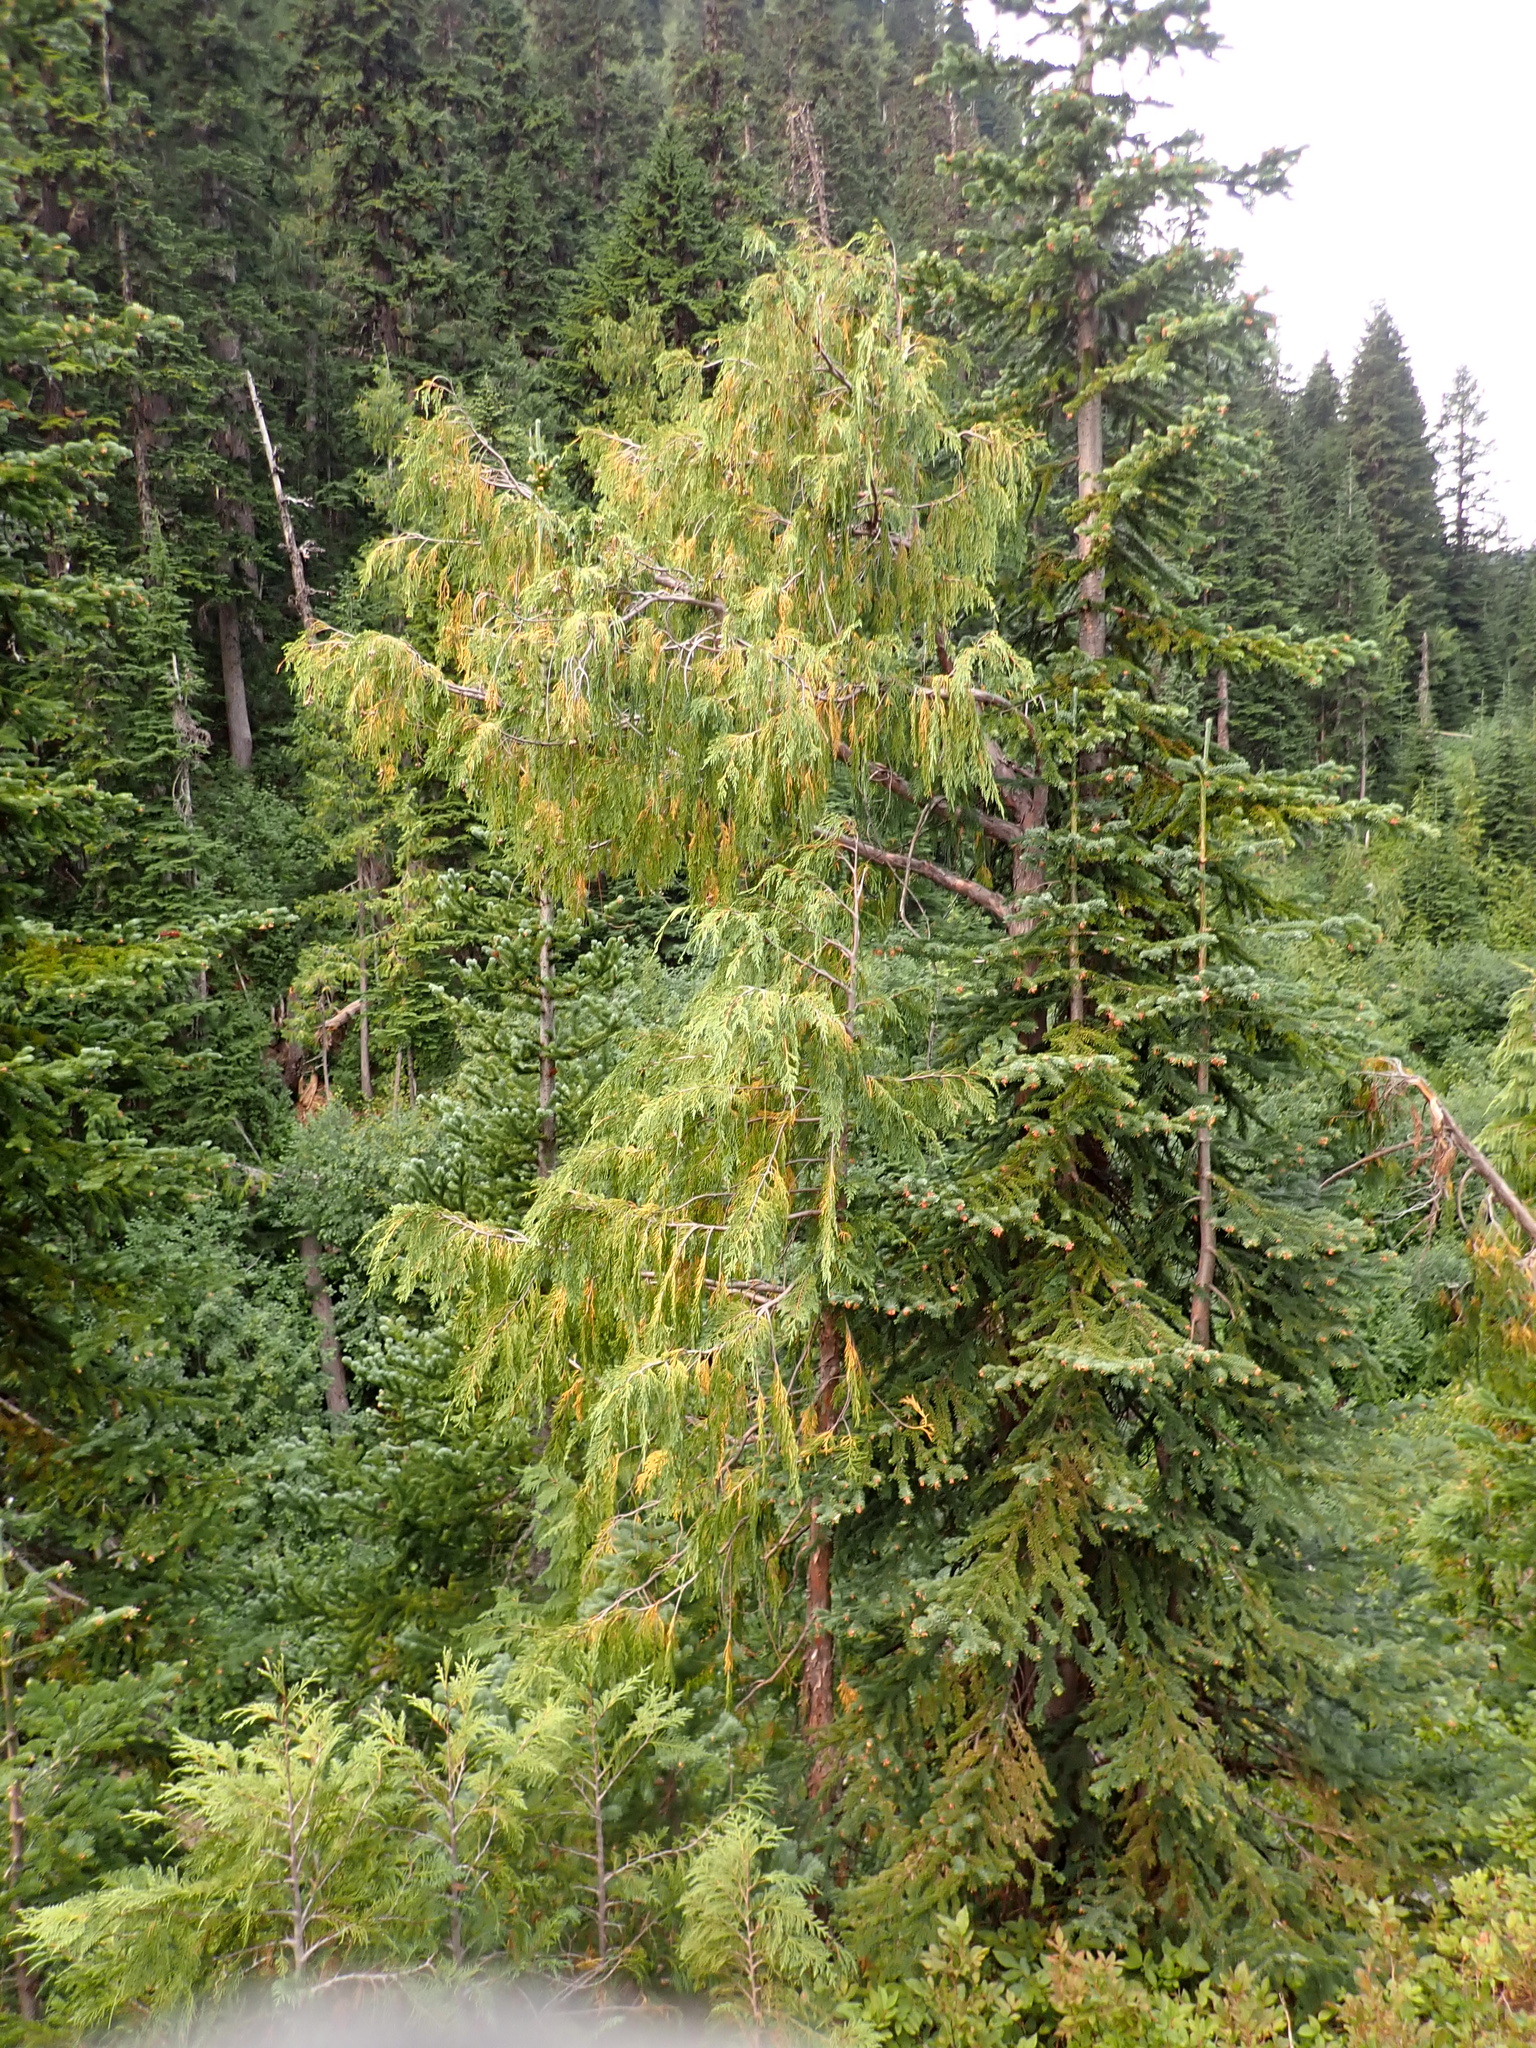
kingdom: Plantae
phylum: Tracheophyta
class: Pinopsida
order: Pinales
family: Cupressaceae
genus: Xanthocyparis
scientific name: Xanthocyparis nootkatensis
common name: Nootka cypress
